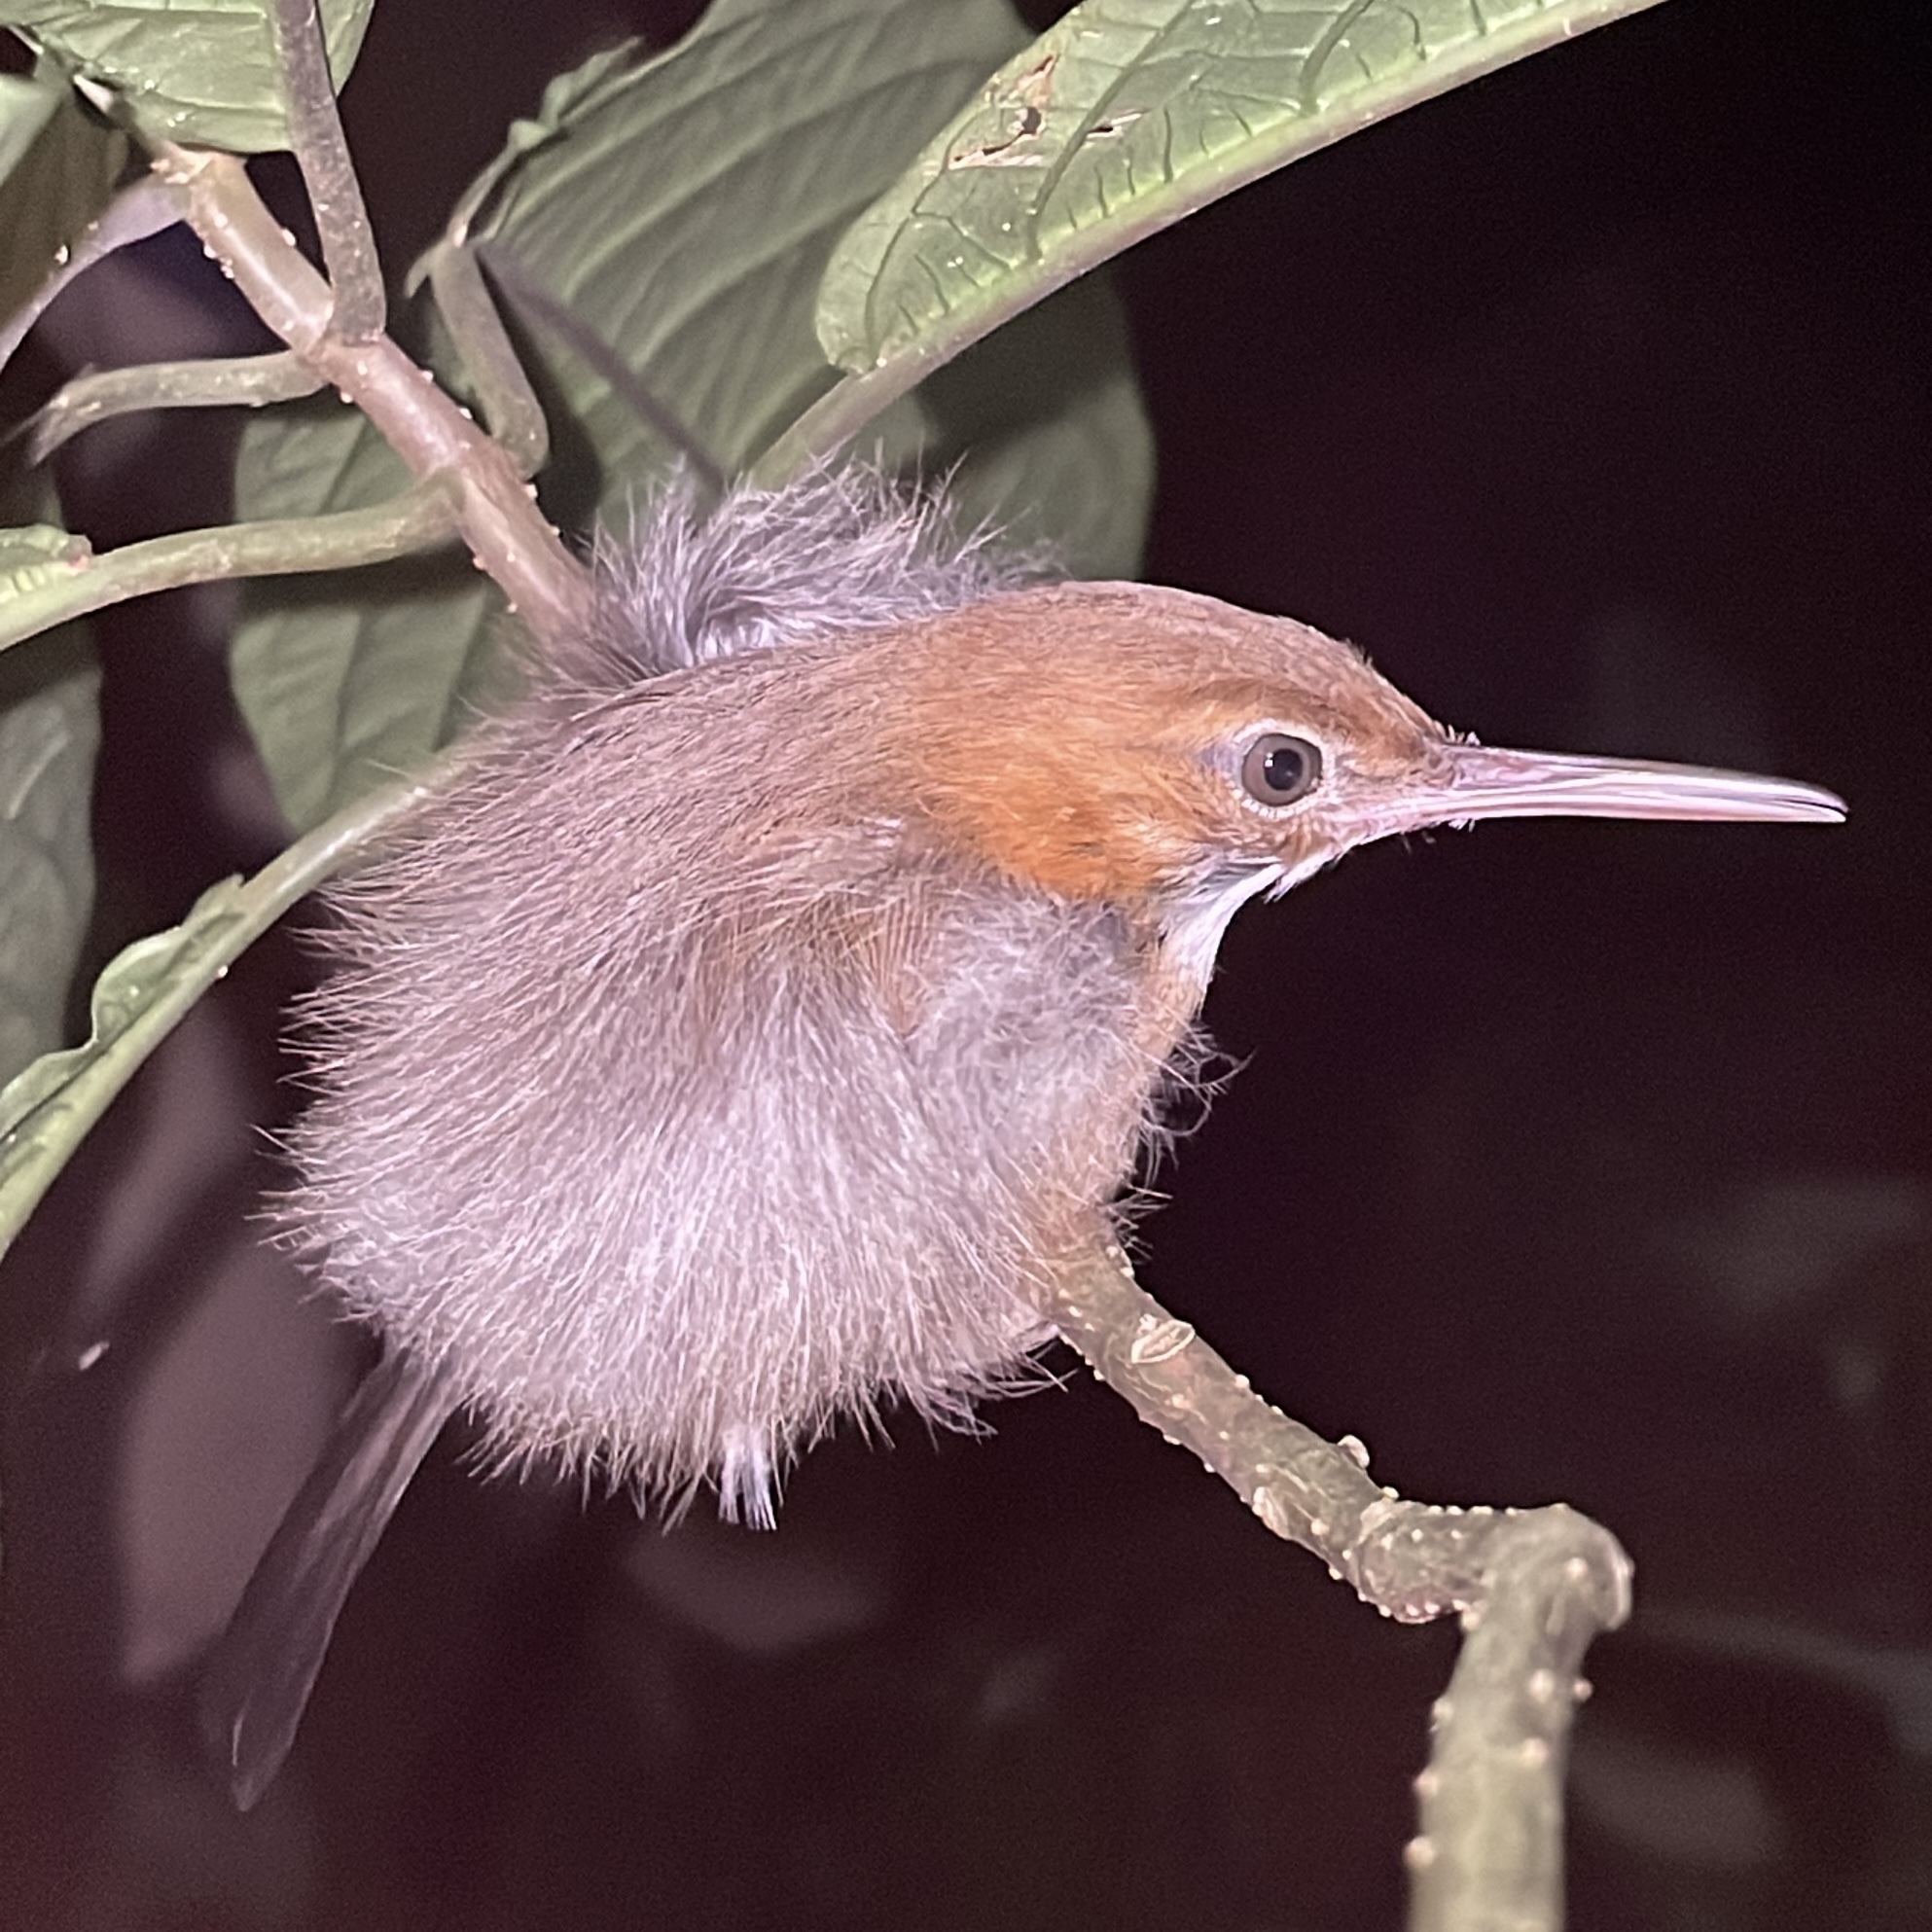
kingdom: Animalia
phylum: Chordata
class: Aves
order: Passeriformes
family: Polioptilidae
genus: Ramphocaenus
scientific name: Ramphocaenus melanurus
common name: Long-billed gnatwren
